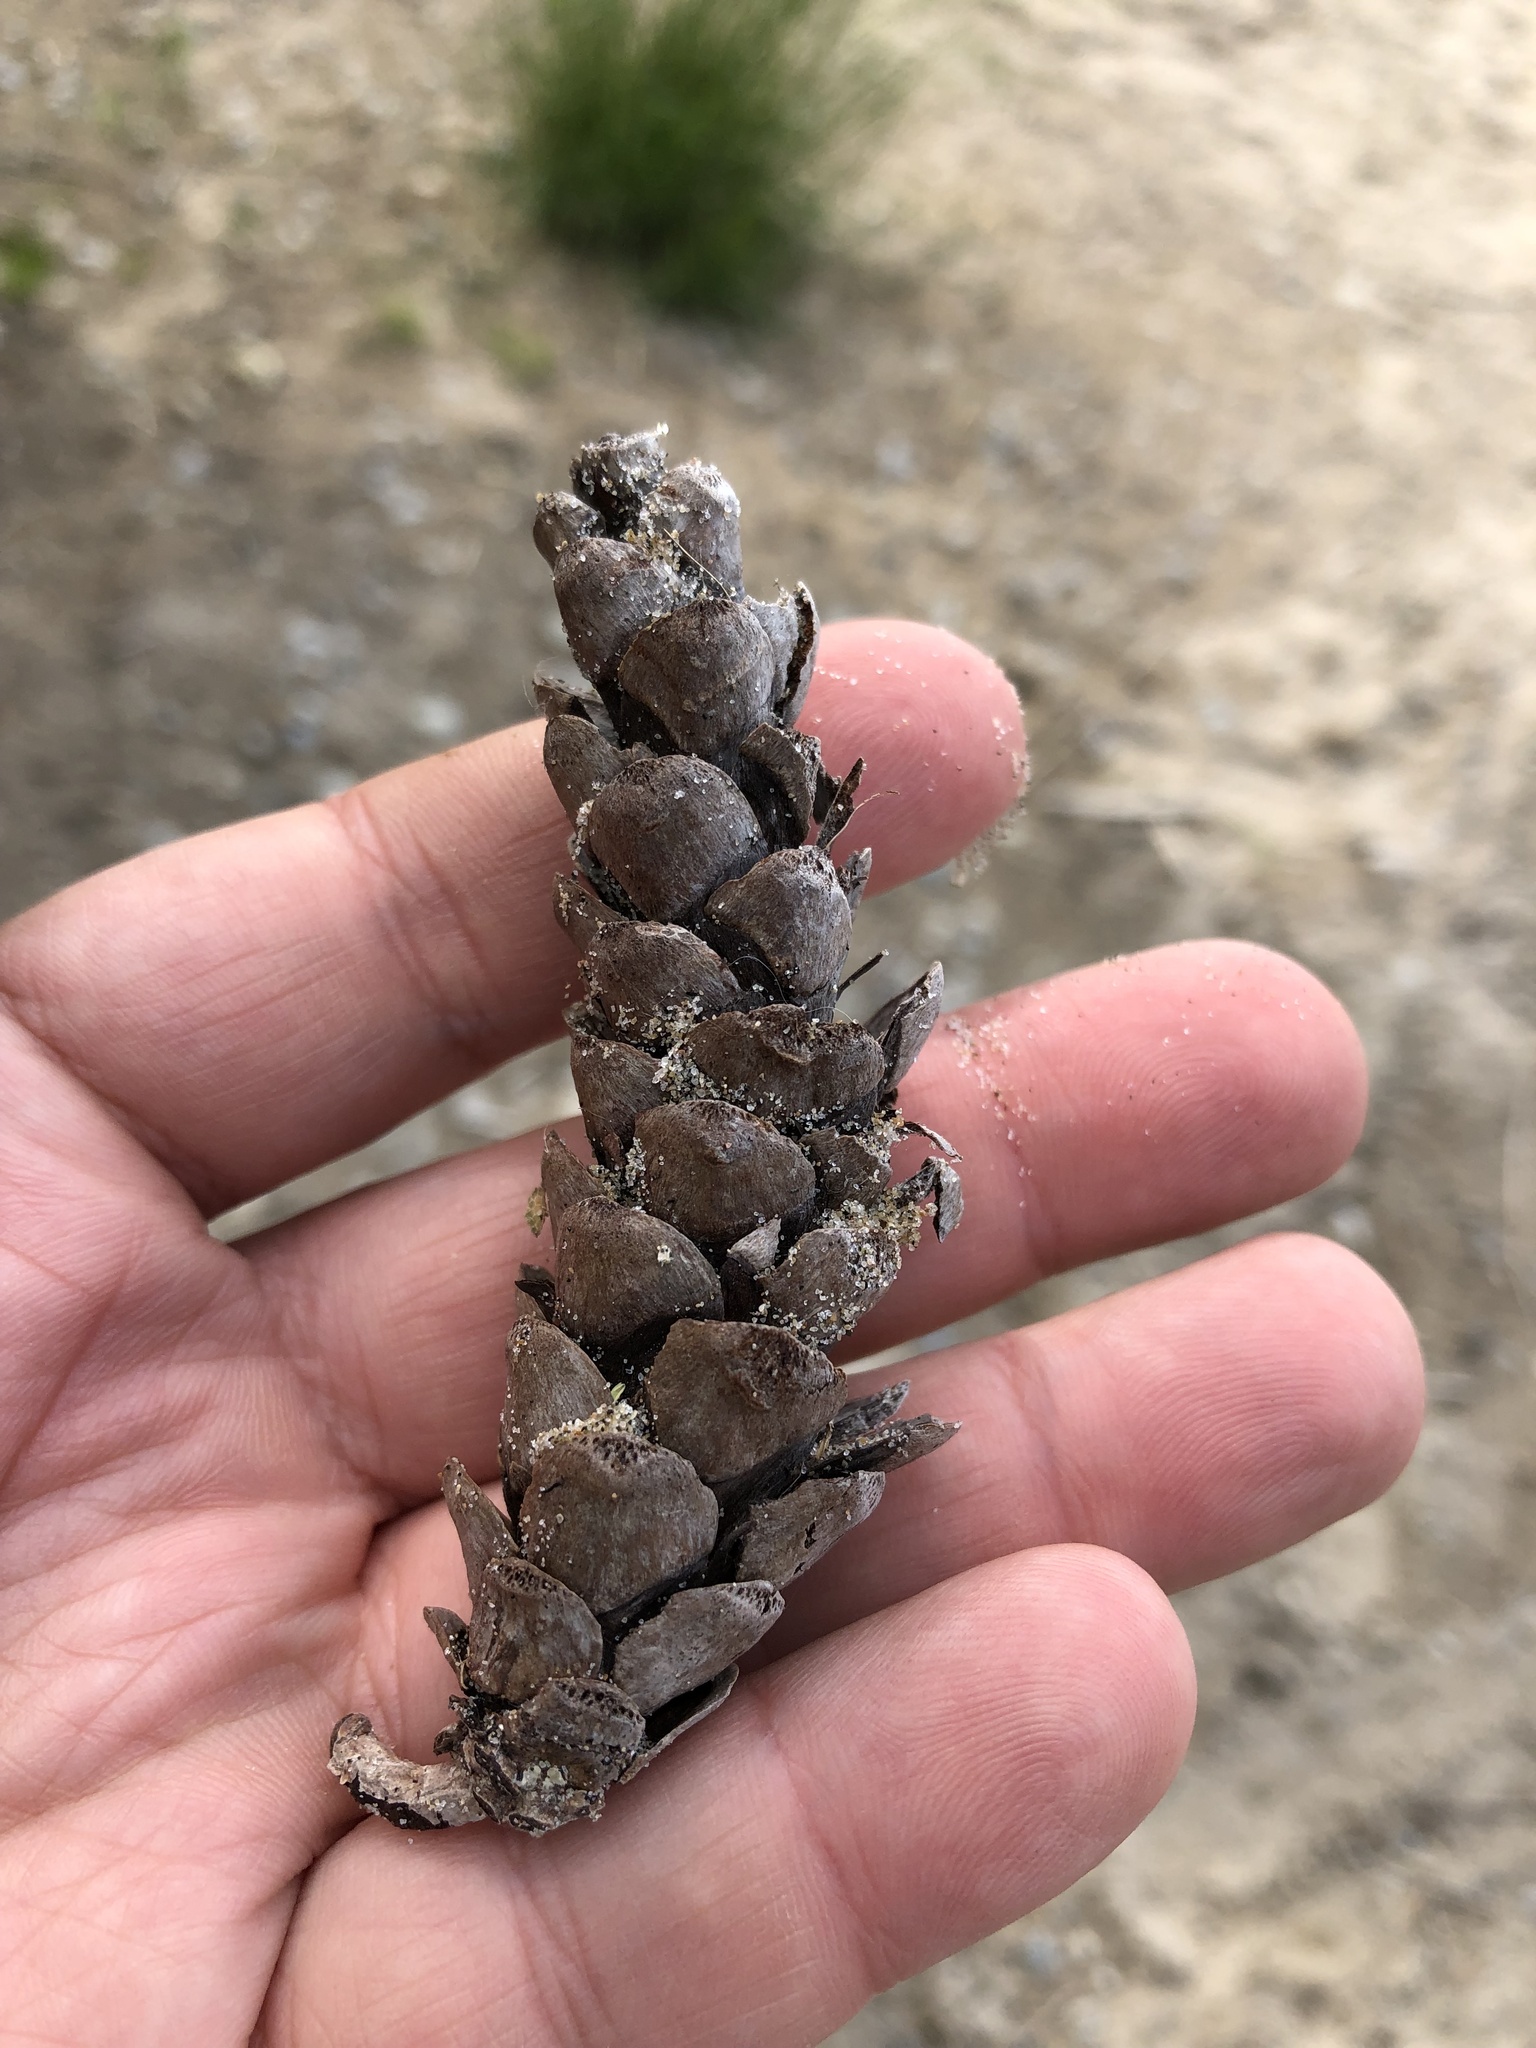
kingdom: Plantae
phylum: Tracheophyta
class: Pinopsida
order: Pinales
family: Pinaceae
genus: Pinus
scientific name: Pinus strobus
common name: Weymouth pine
